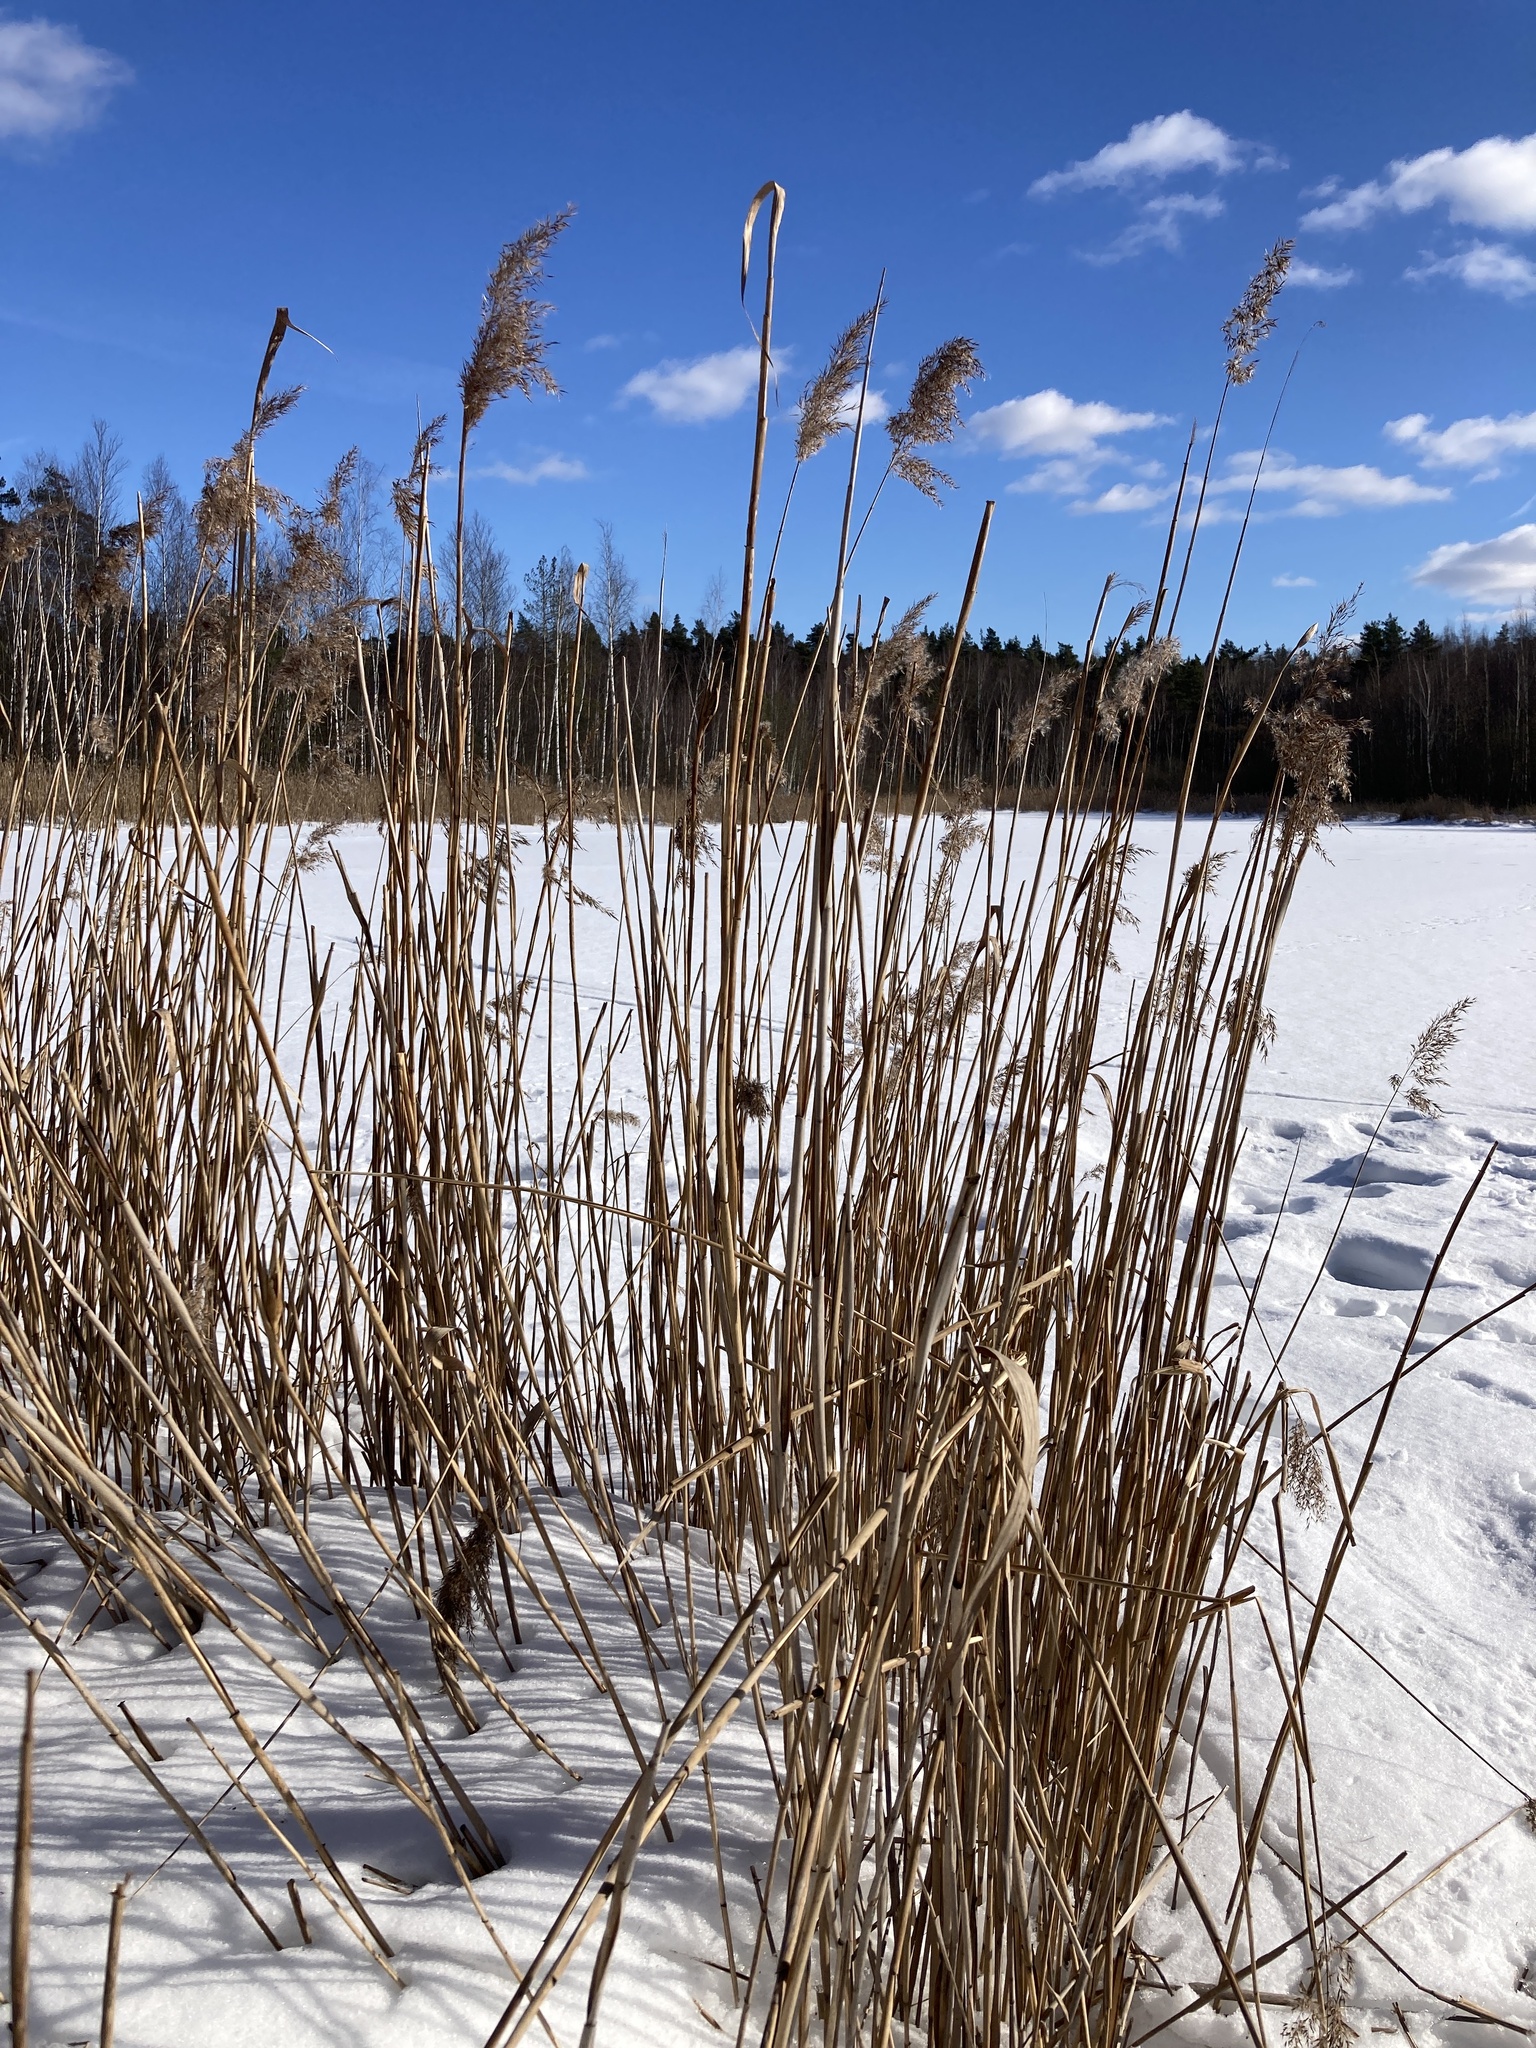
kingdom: Plantae
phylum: Tracheophyta
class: Liliopsida
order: Poales
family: Poaceae
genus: Phragmites
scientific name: Phragmites australis
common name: Common reed
